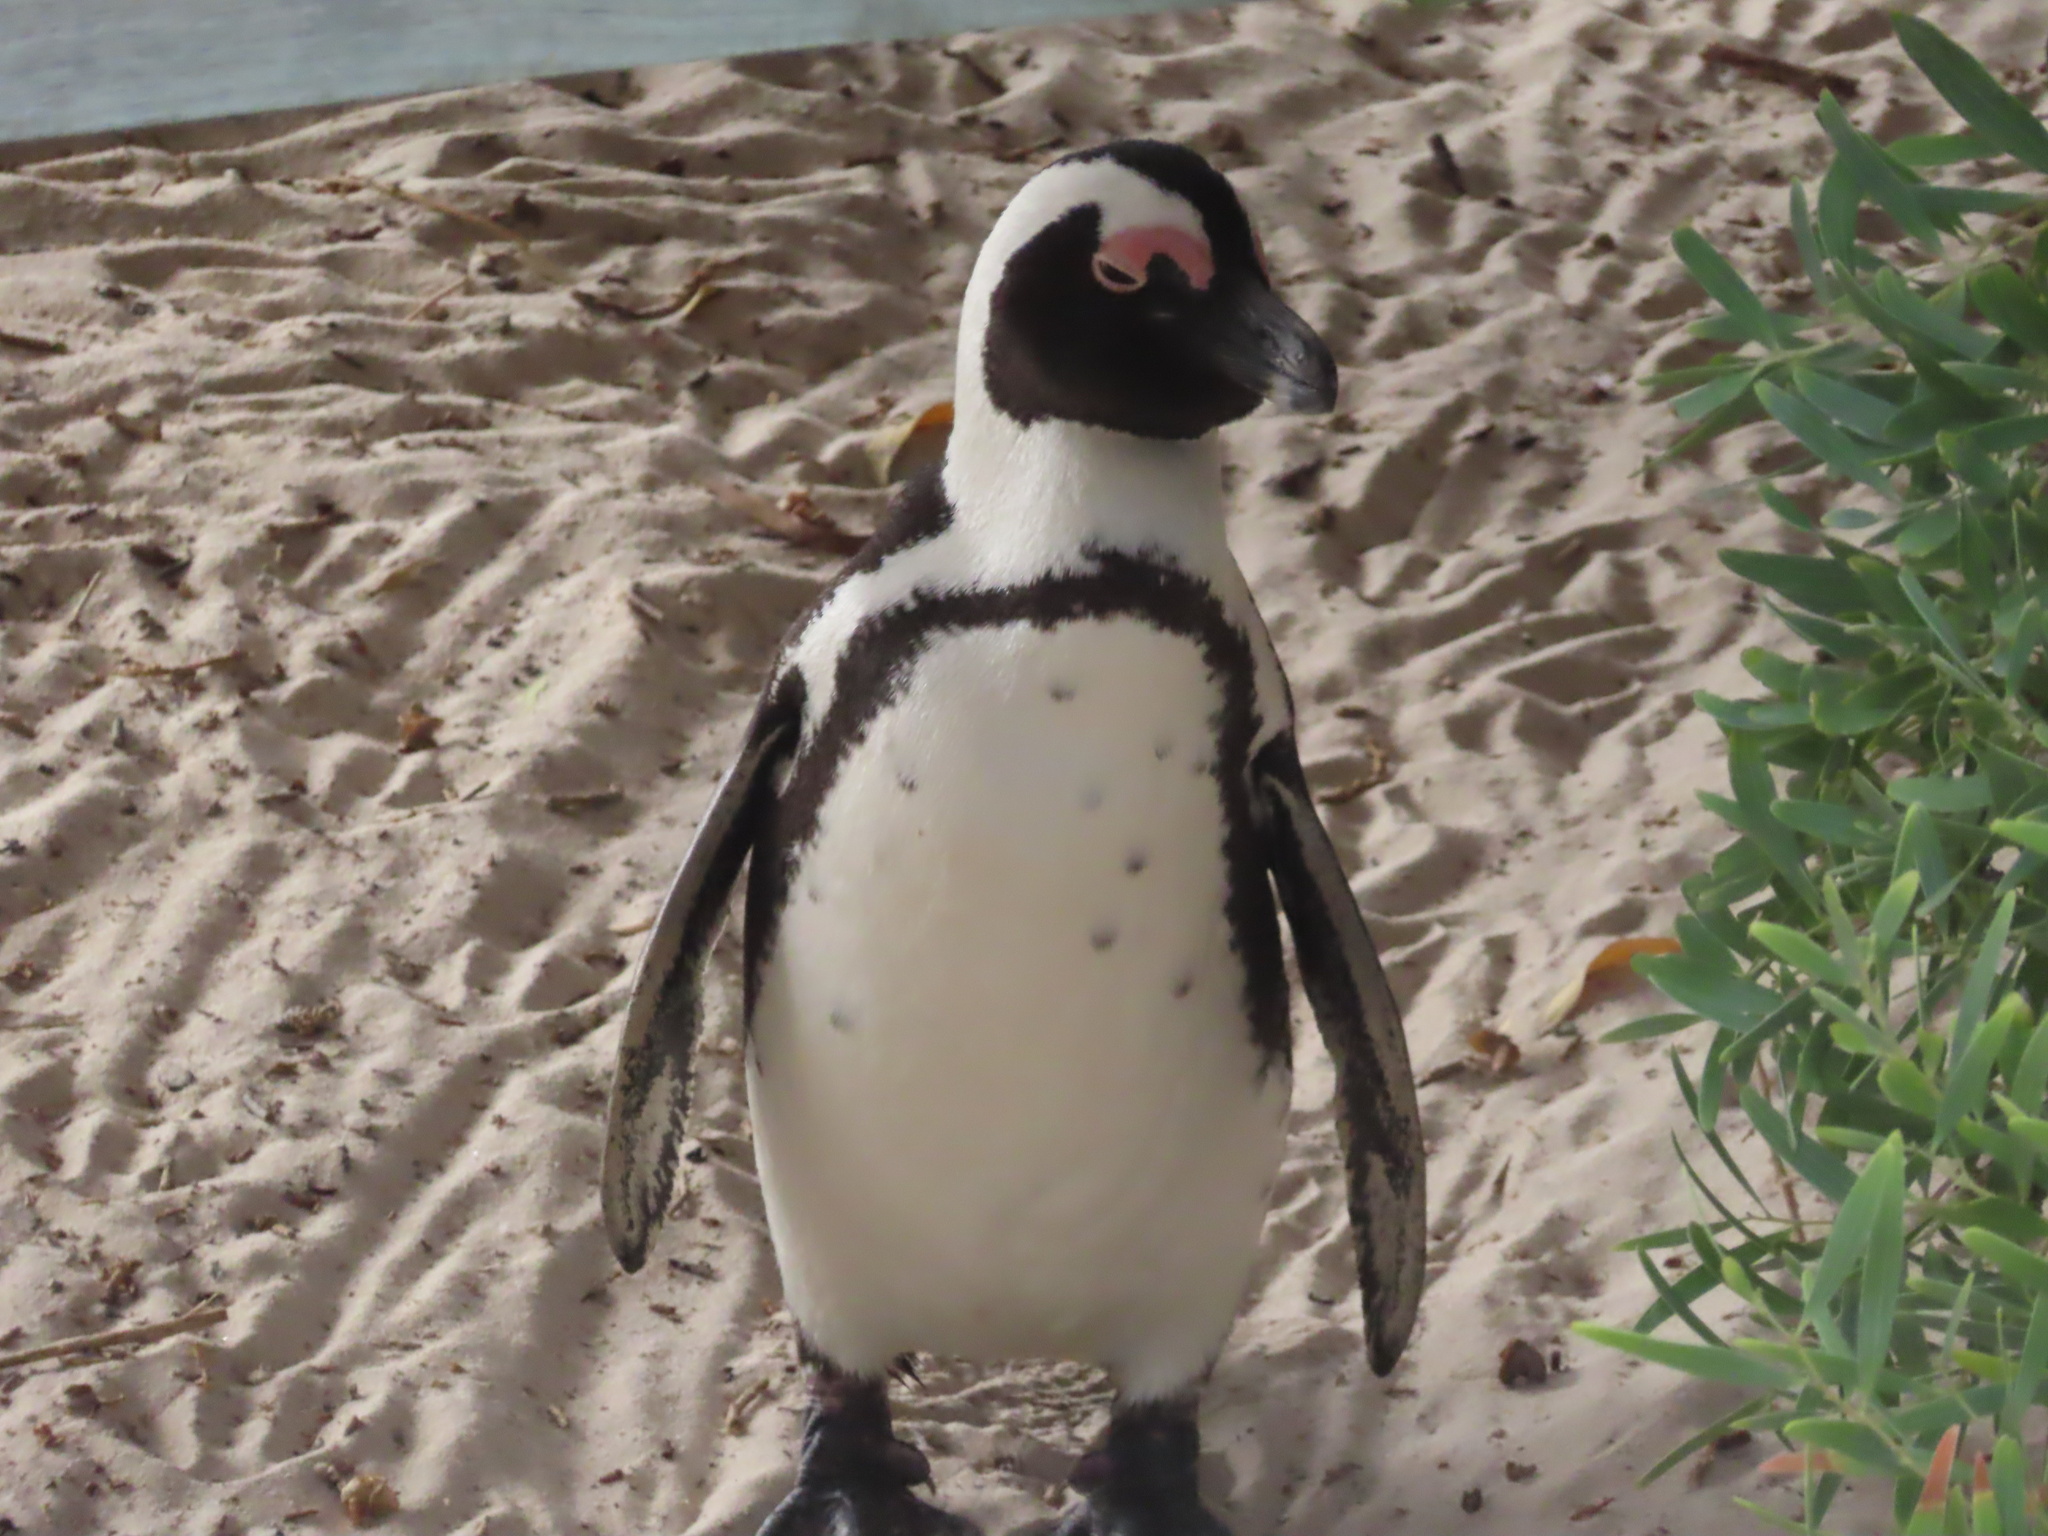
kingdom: Animalia
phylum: Chordata
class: Aves
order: Sphenisciformes
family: Spheniscidae
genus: Spheniscus
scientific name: Spheniscus demersus
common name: African penguin
